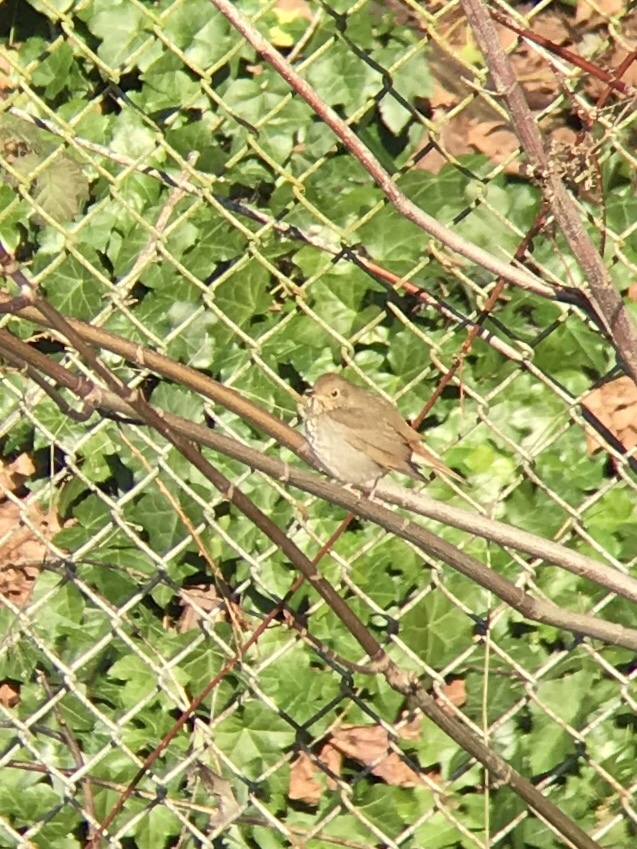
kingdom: Animalia
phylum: Chordata
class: Aves
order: Passeriformes
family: Turdidae
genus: Catharus
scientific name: Catharus guttatus
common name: Hermit thrush
